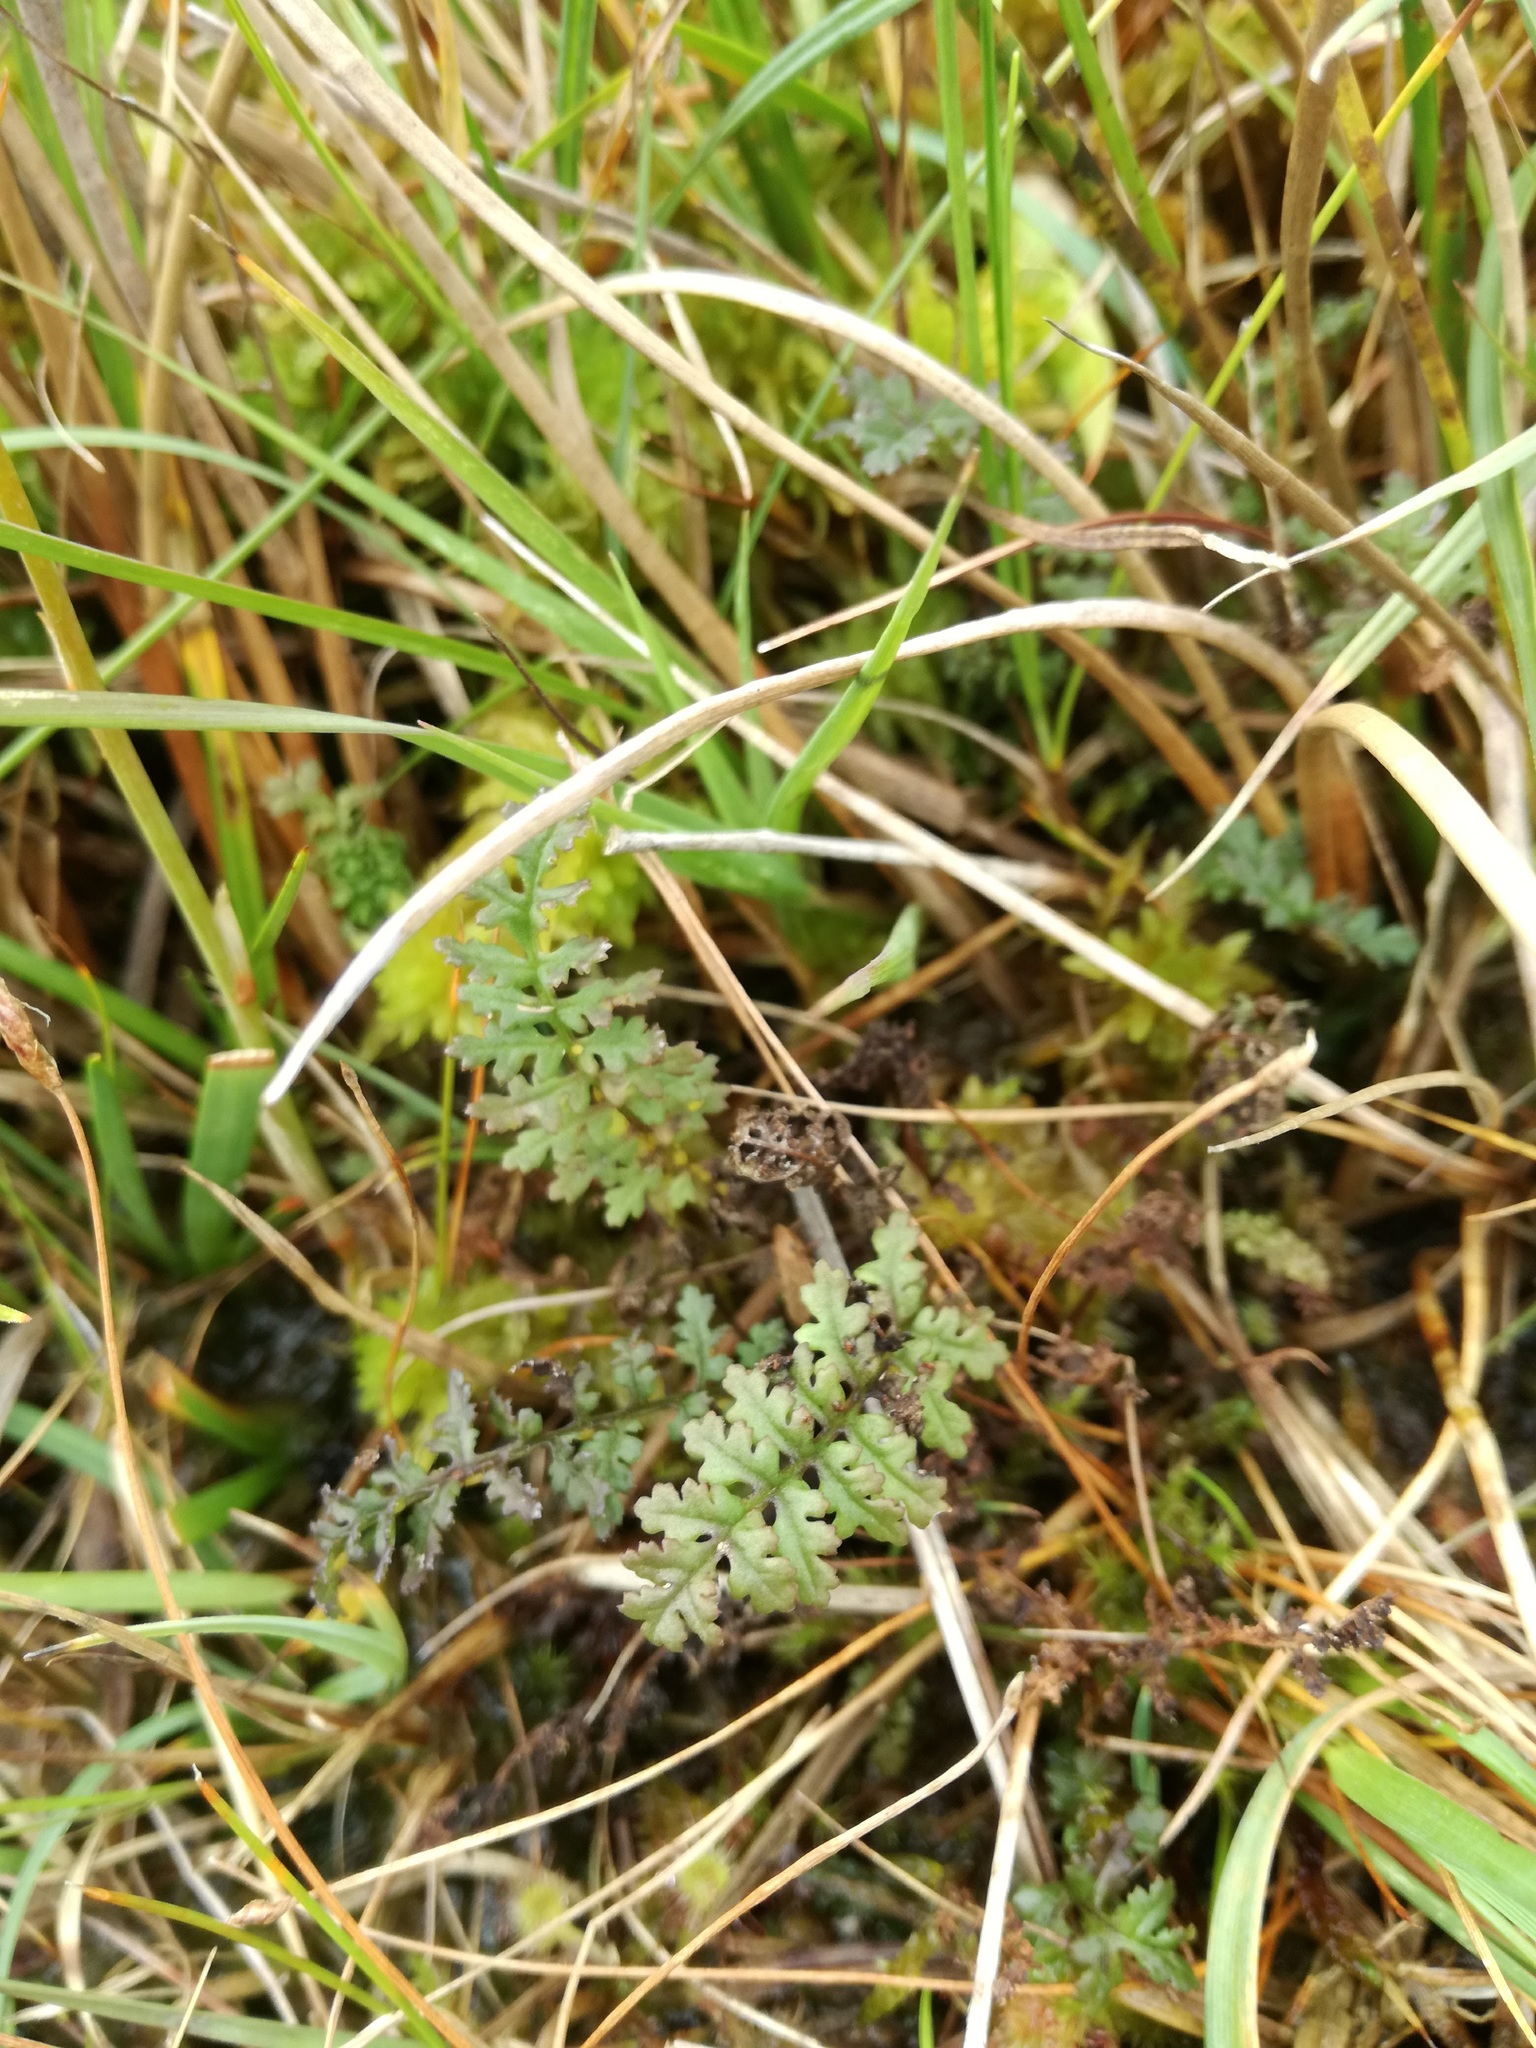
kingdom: Plantae
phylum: Tracheophyta
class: Magnoliopsida
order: Lamiales
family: Orobanchaceae
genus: Pedicularis
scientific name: Pedicularis sylvatica
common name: Lousewort
